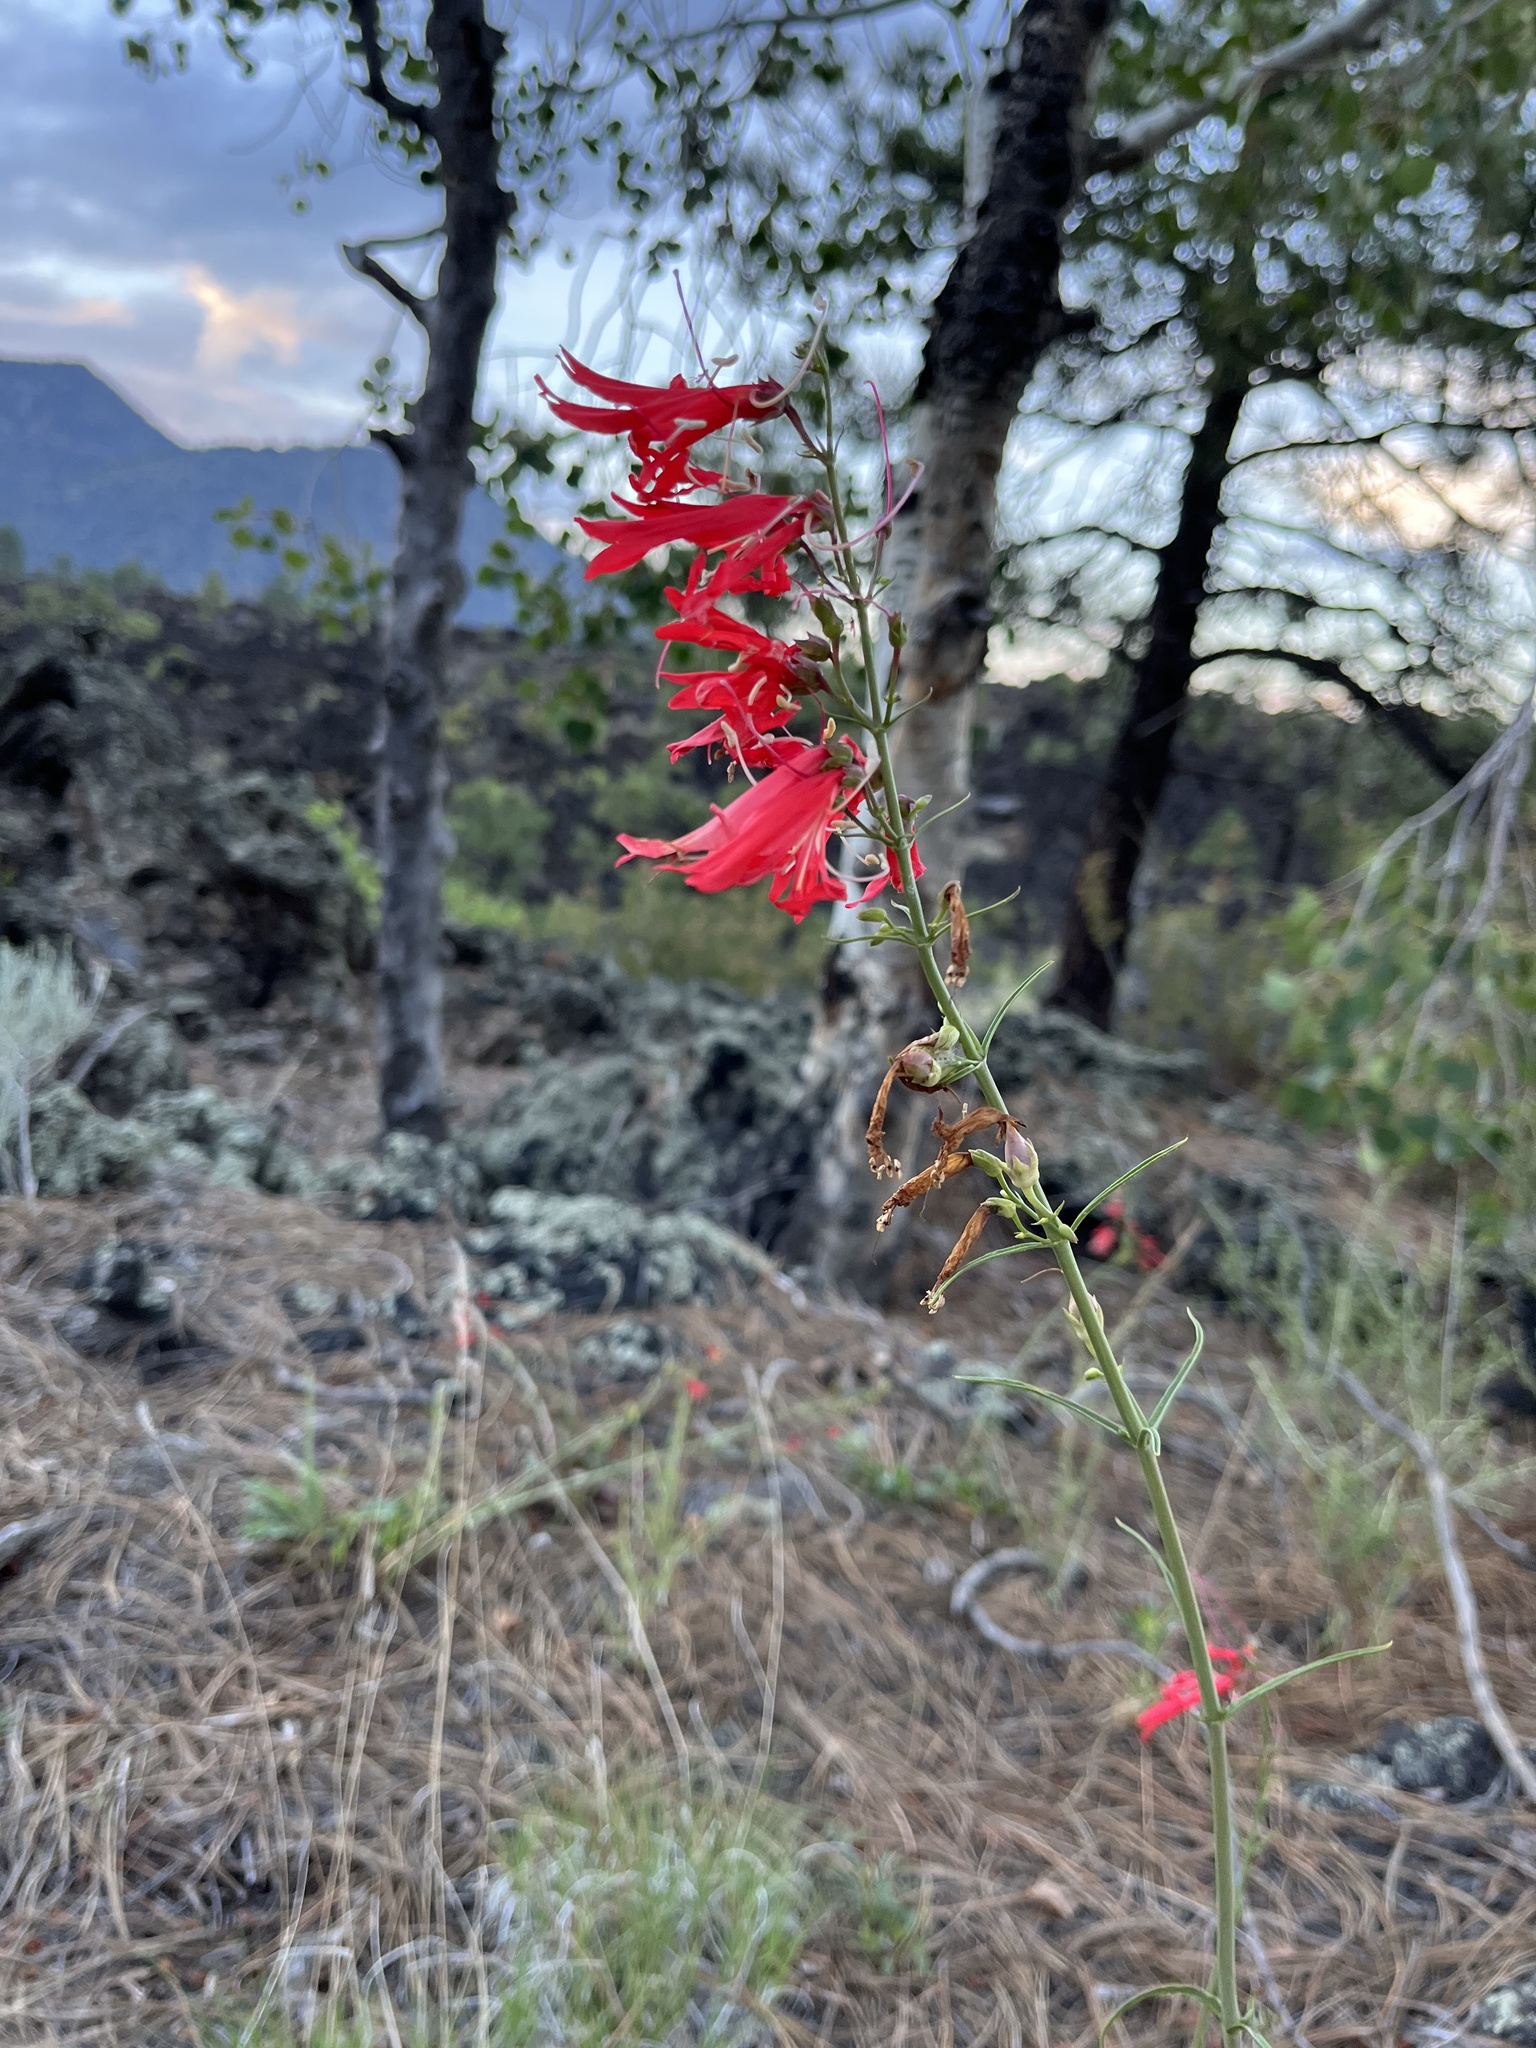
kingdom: Plantae
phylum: Tracheophyta
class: Magnoliopsida
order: Lamiales
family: Plantaginaceae
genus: Penstemon
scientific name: Penstemon barbatus
